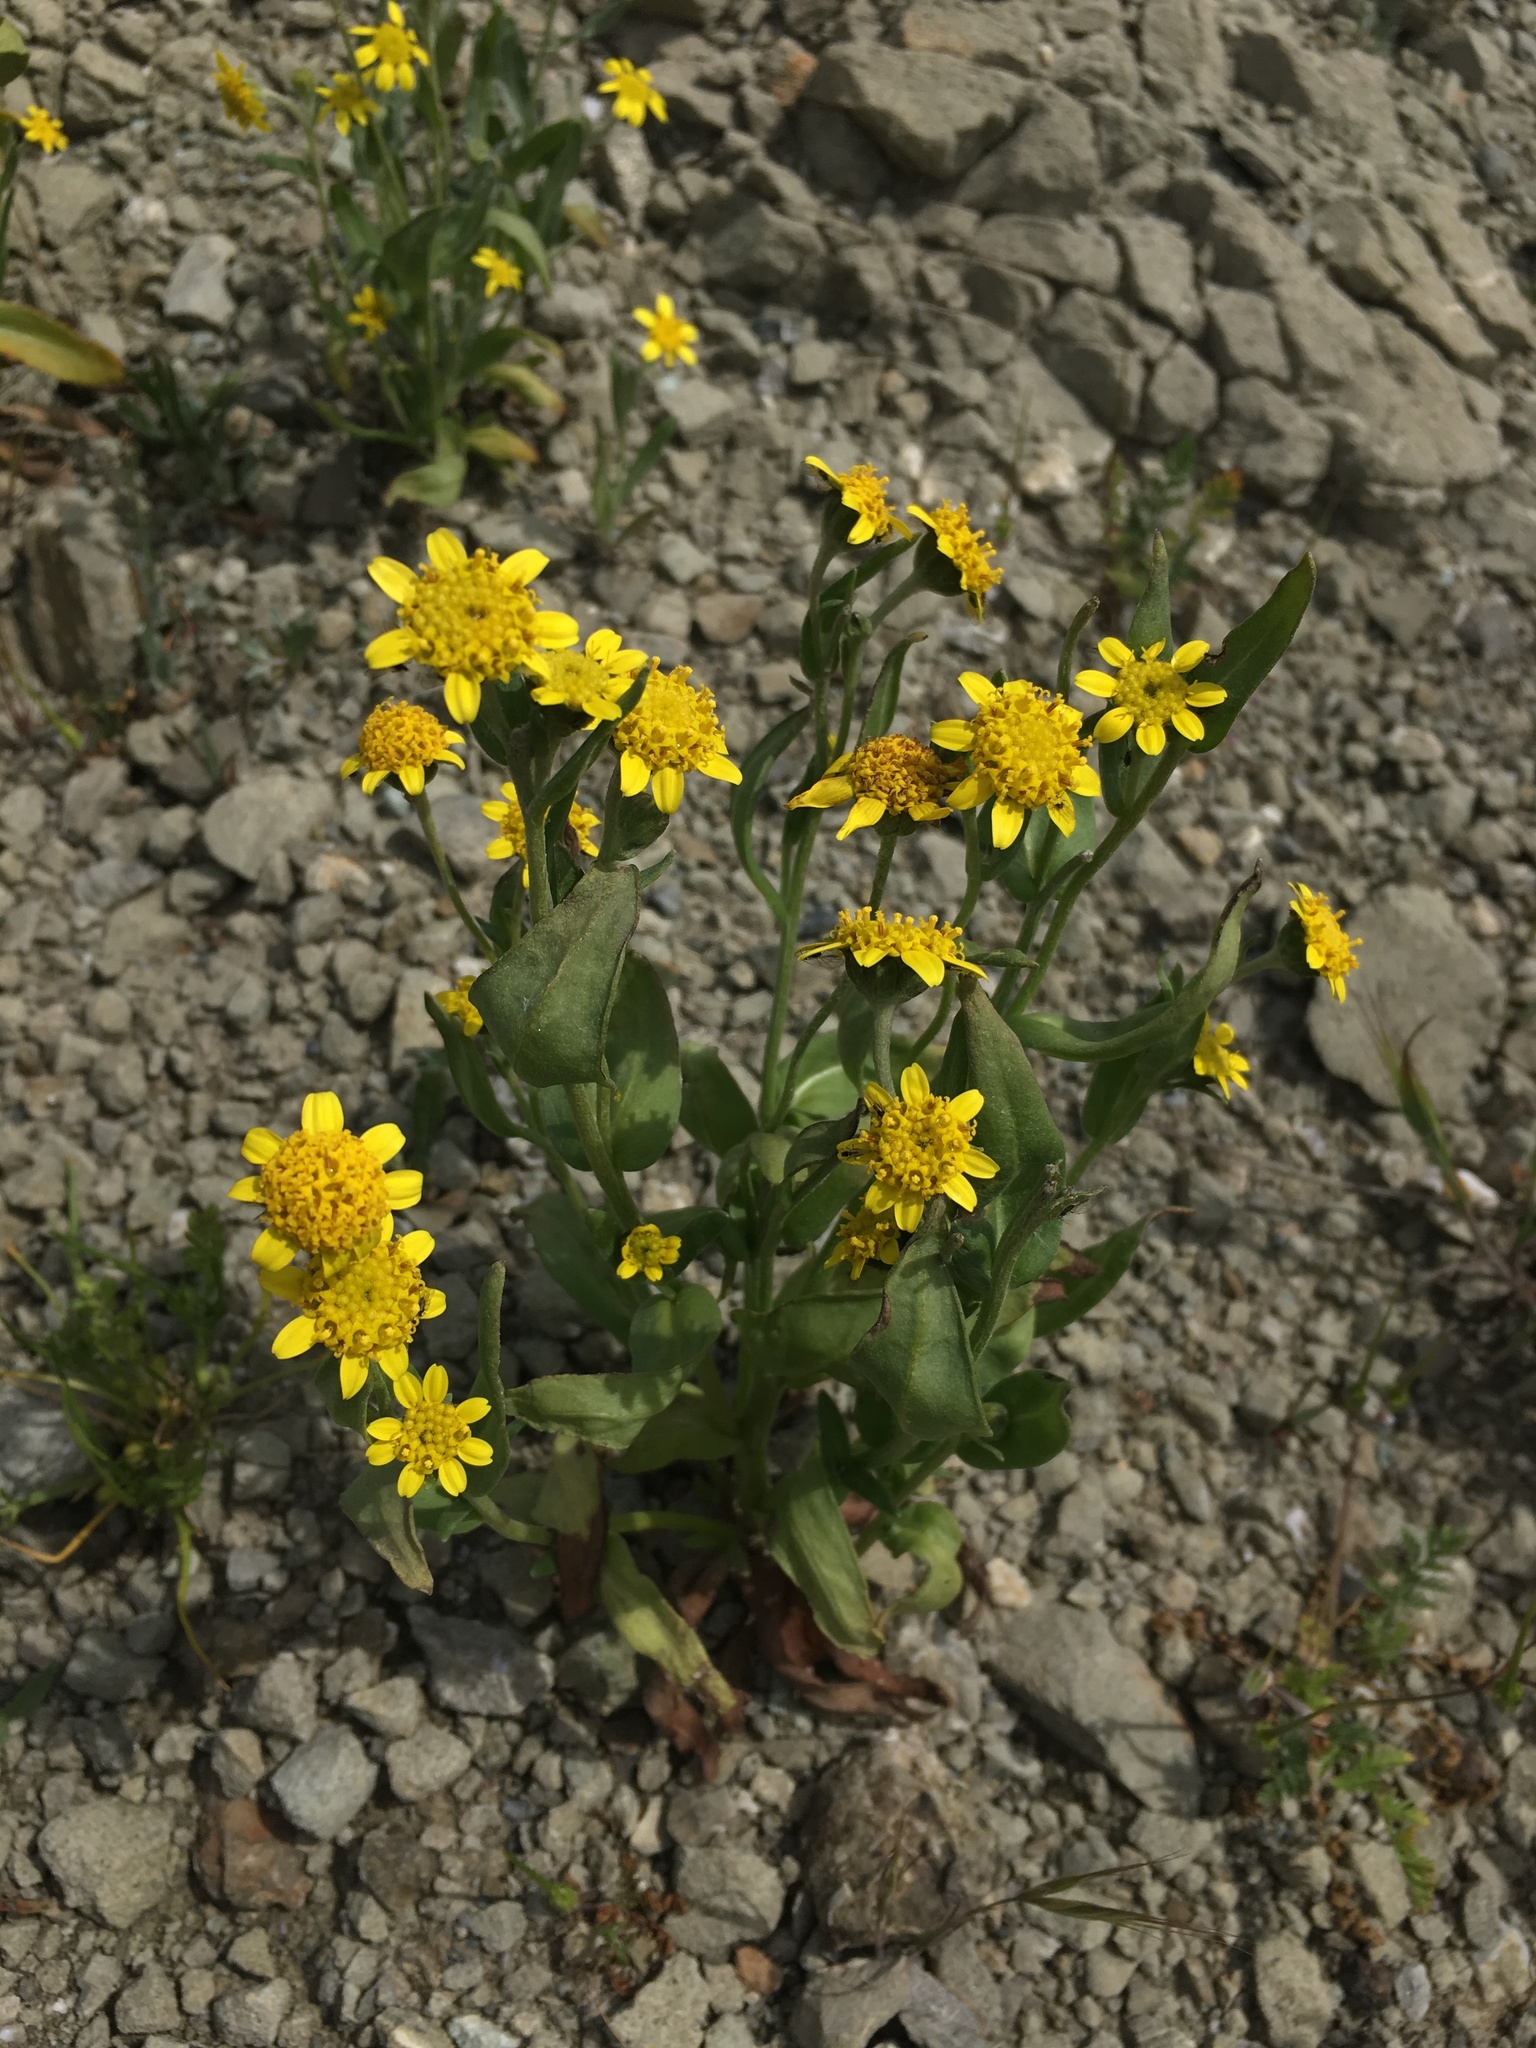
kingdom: Plantae
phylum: Tracheophyta
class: Magnoliopsida
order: Asterales
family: Asteraceae
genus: Monolopia
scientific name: Monolopia stricta
